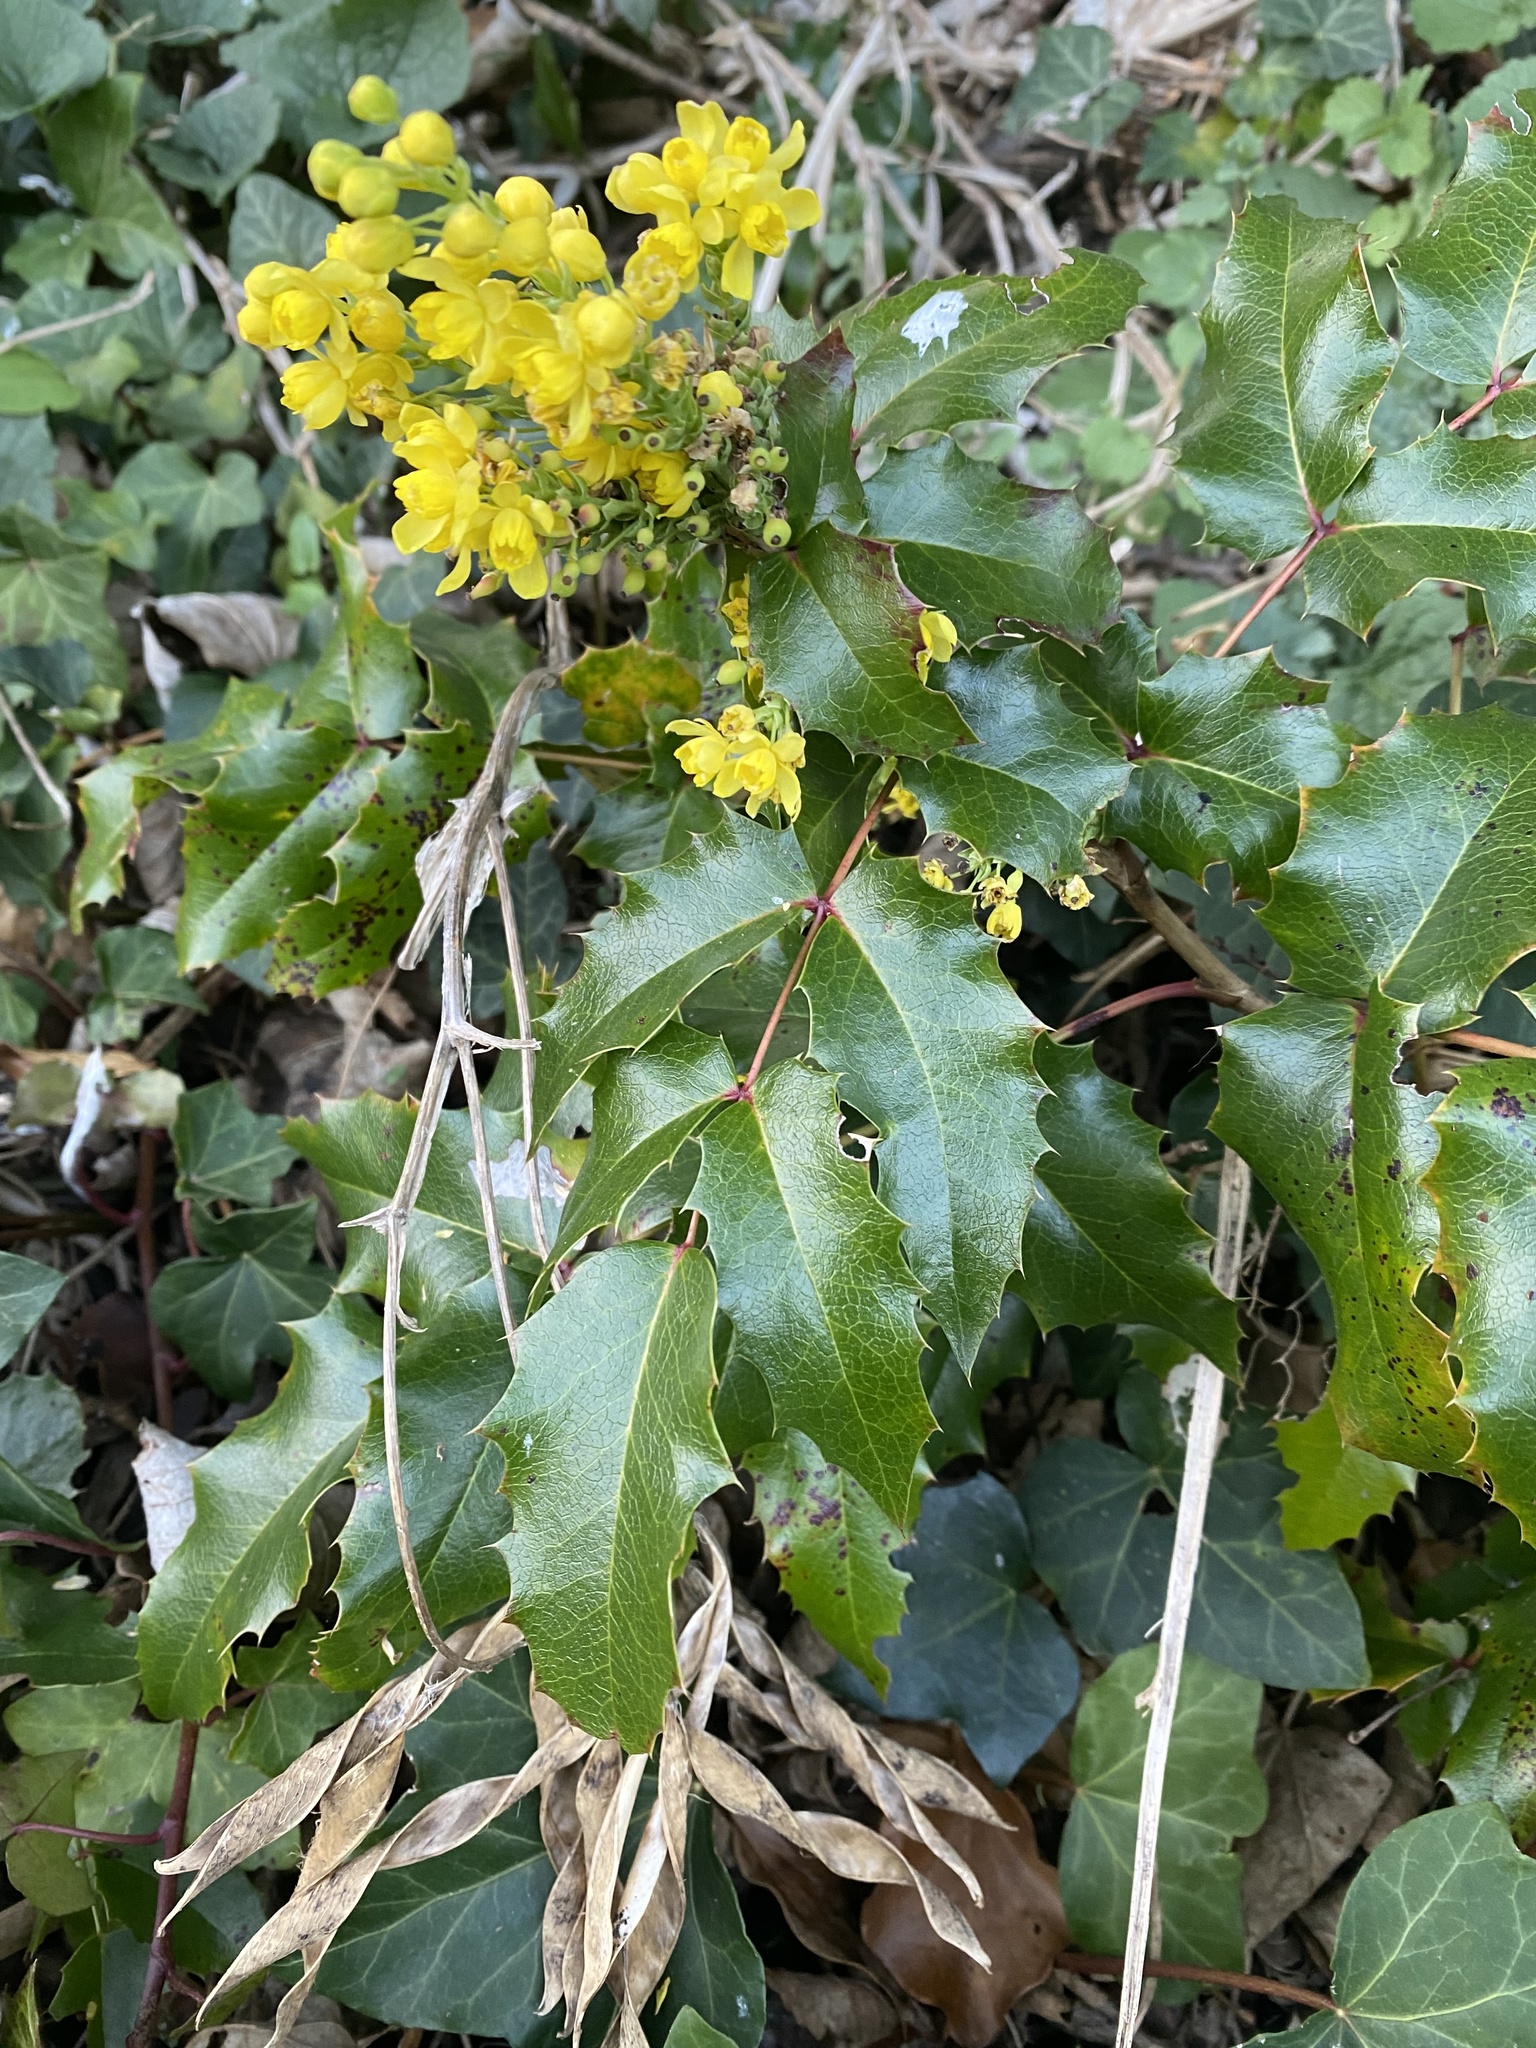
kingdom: Plantae
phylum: Tracheophyta
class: Magnoliopsida
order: Ranunculales
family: Berberidaceae
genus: Mahonia
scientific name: Mahonia aquifolium
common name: Oregon-grape
